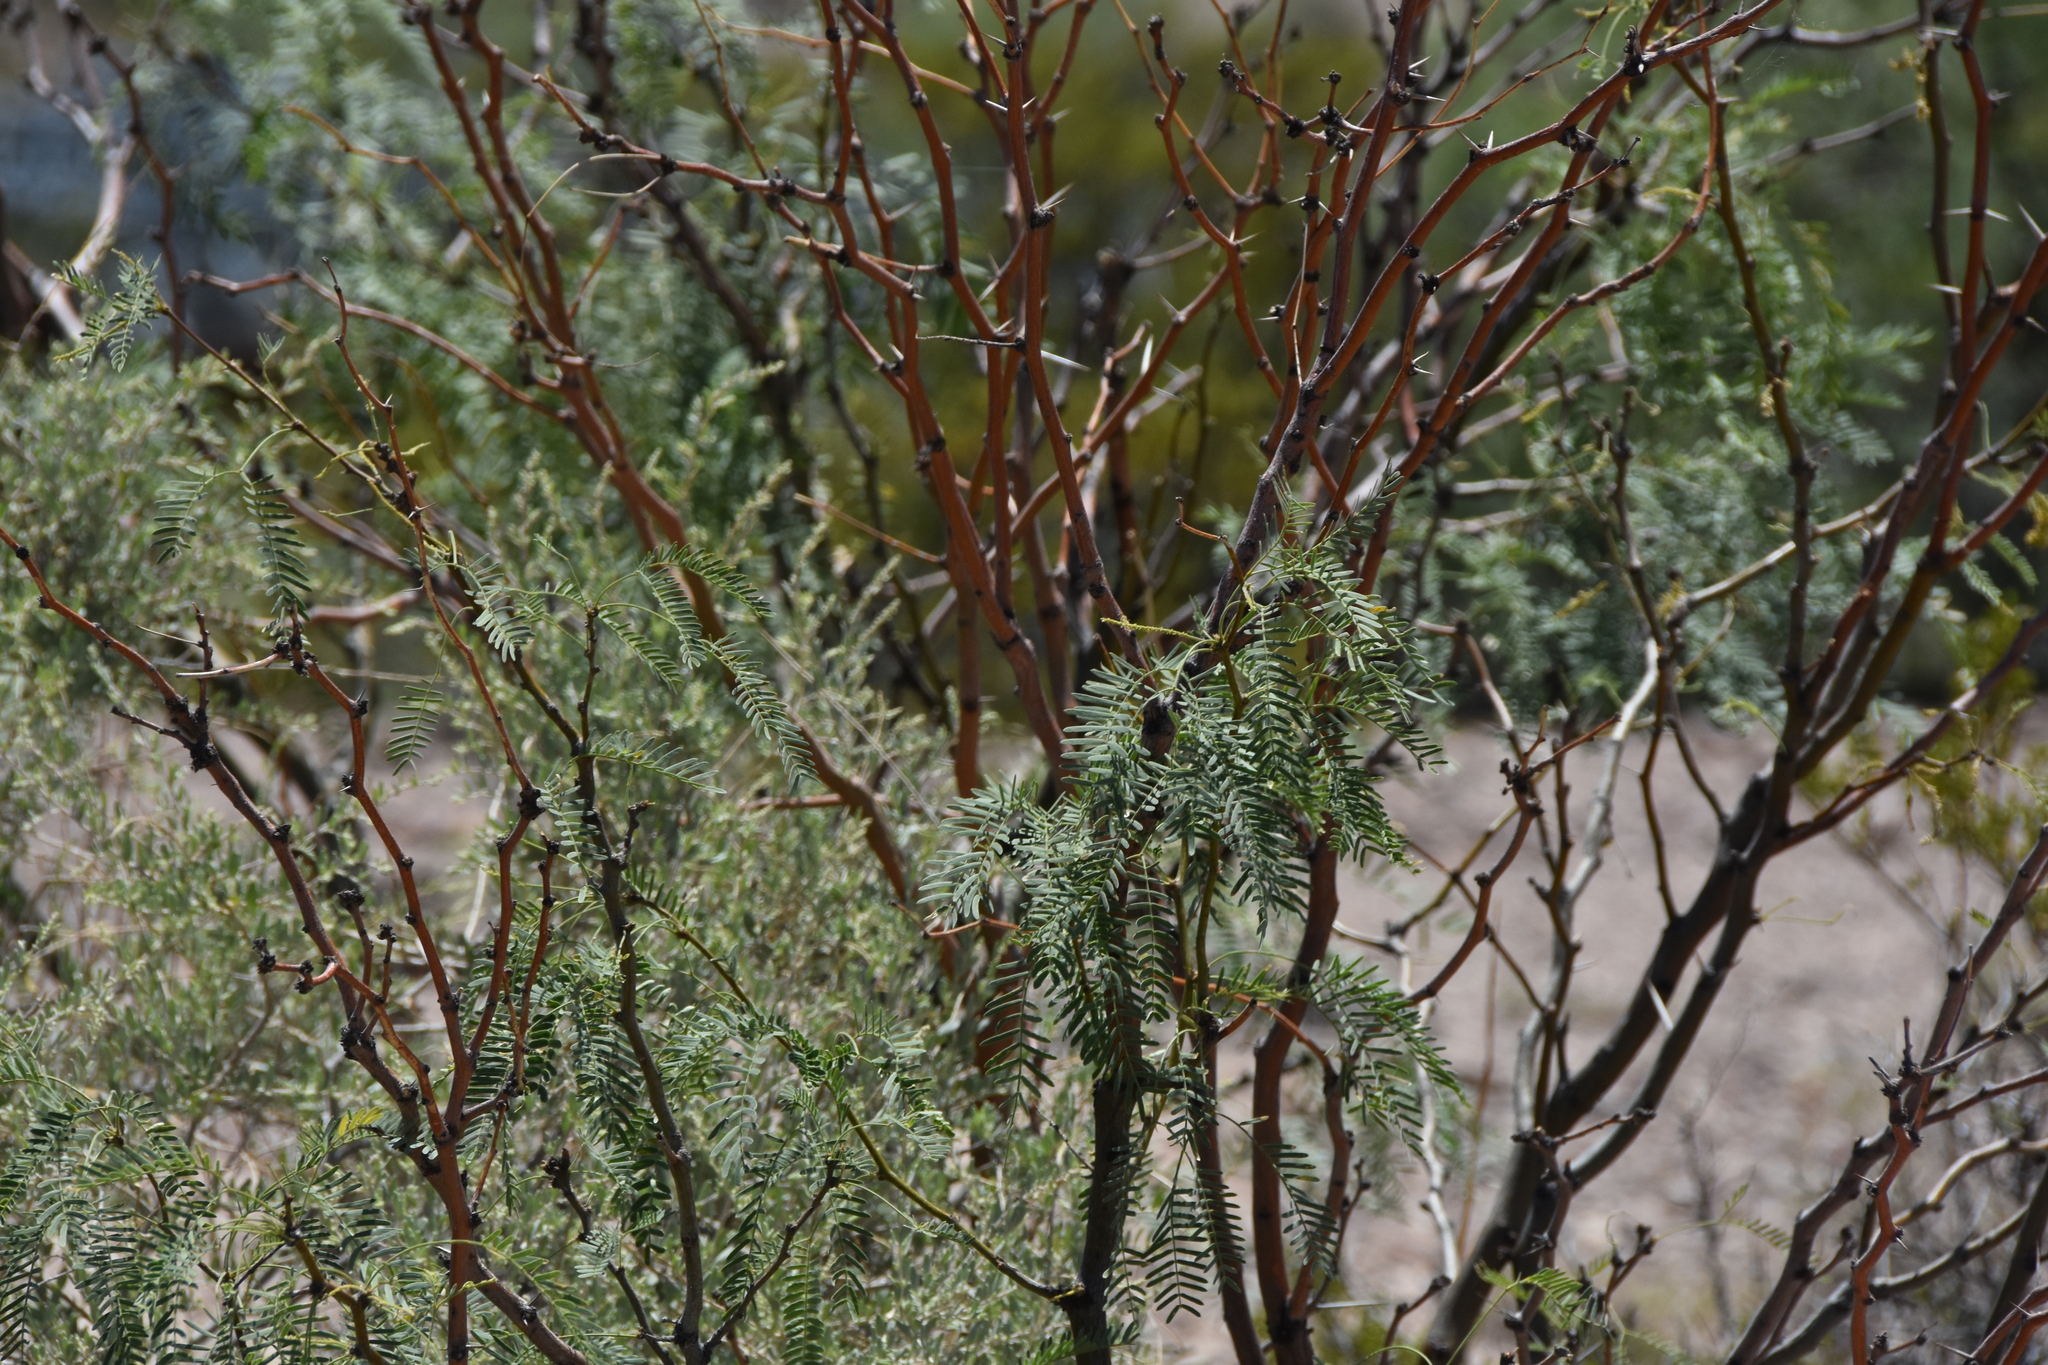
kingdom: Plantae
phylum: Tracheophyta
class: Magnoliopsida
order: Fabales
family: Fabaceae
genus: Prosopis
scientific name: Prosopis glandulosa
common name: Honey mesquite
